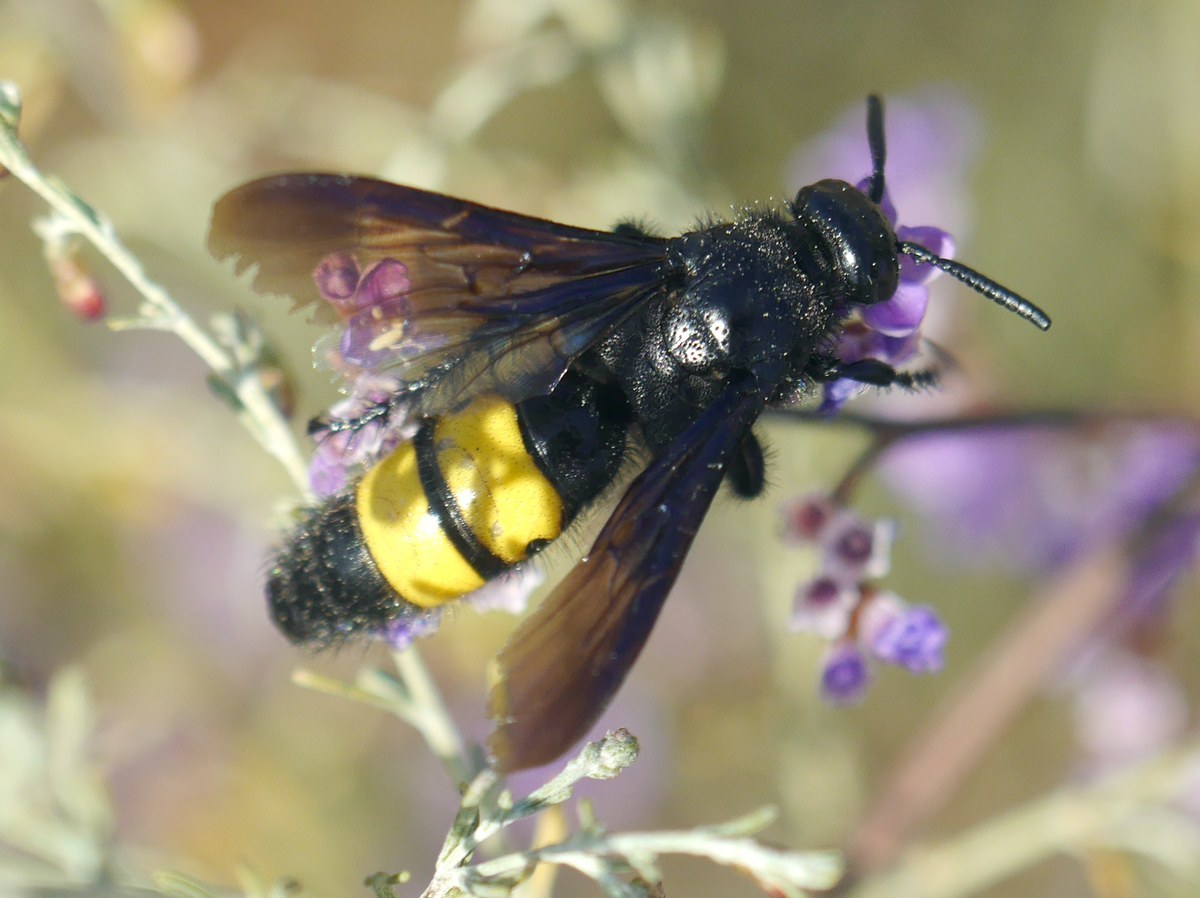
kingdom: Animalia
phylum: Arthropoda
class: Insecta
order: Hymenoptera
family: Scoliidae
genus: Scolia
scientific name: Scolia hirta
